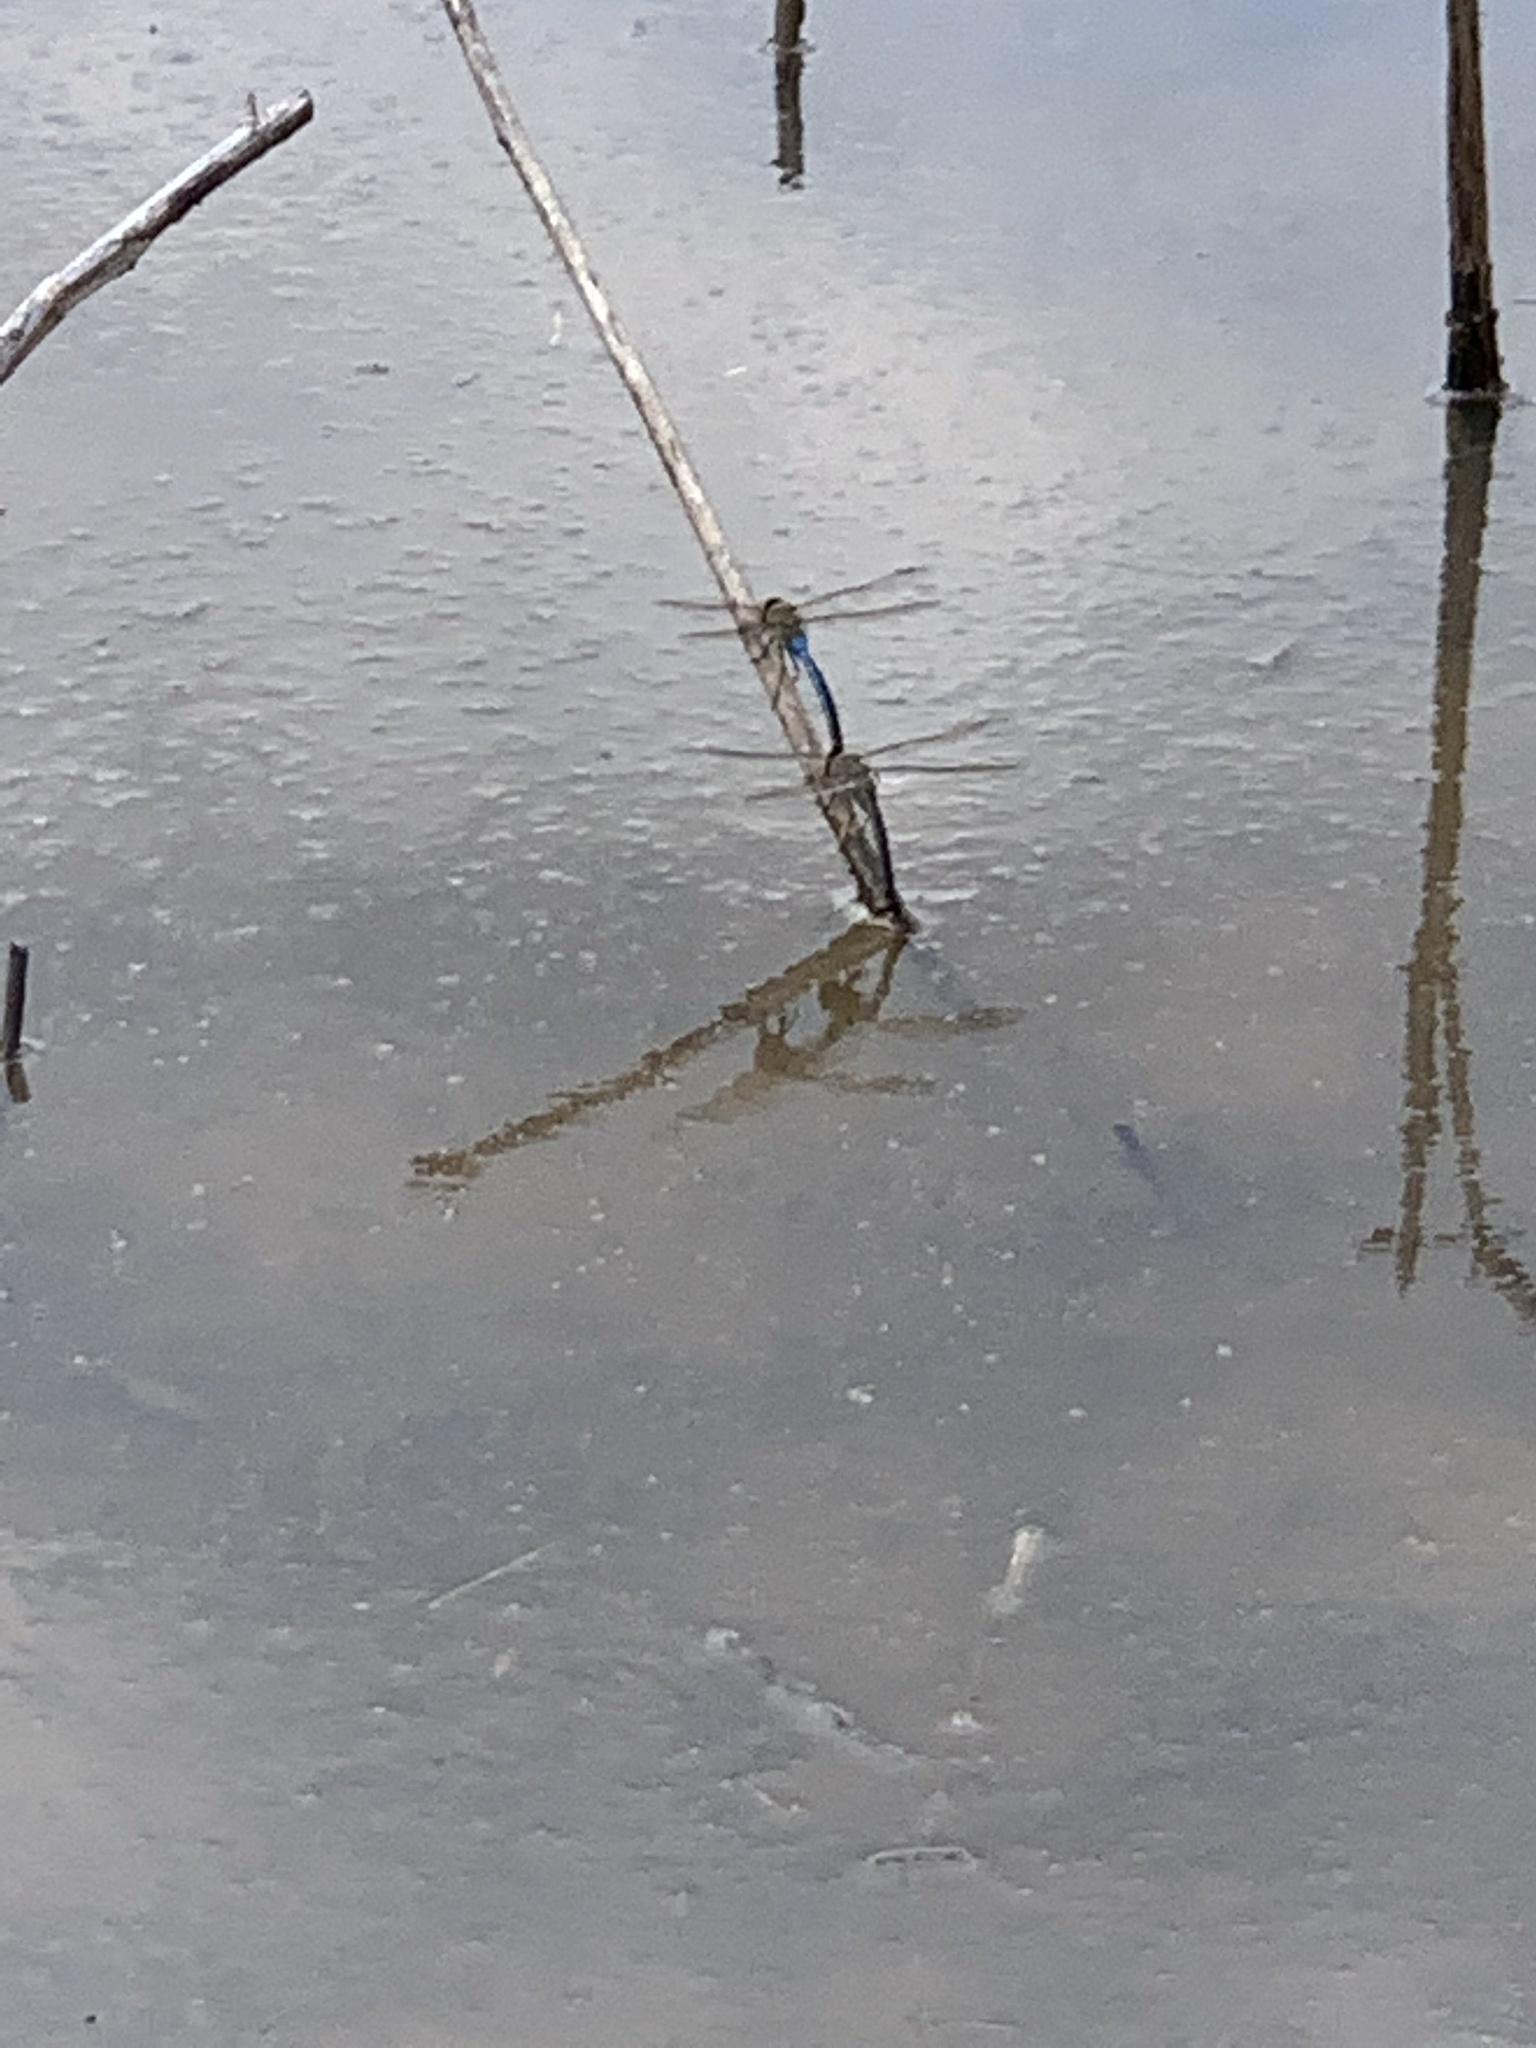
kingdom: Animalia
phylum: Arthropoda
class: Insecta
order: Odonata
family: Aeshnidae
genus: Anax
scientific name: Anax junius
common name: Common green darner
